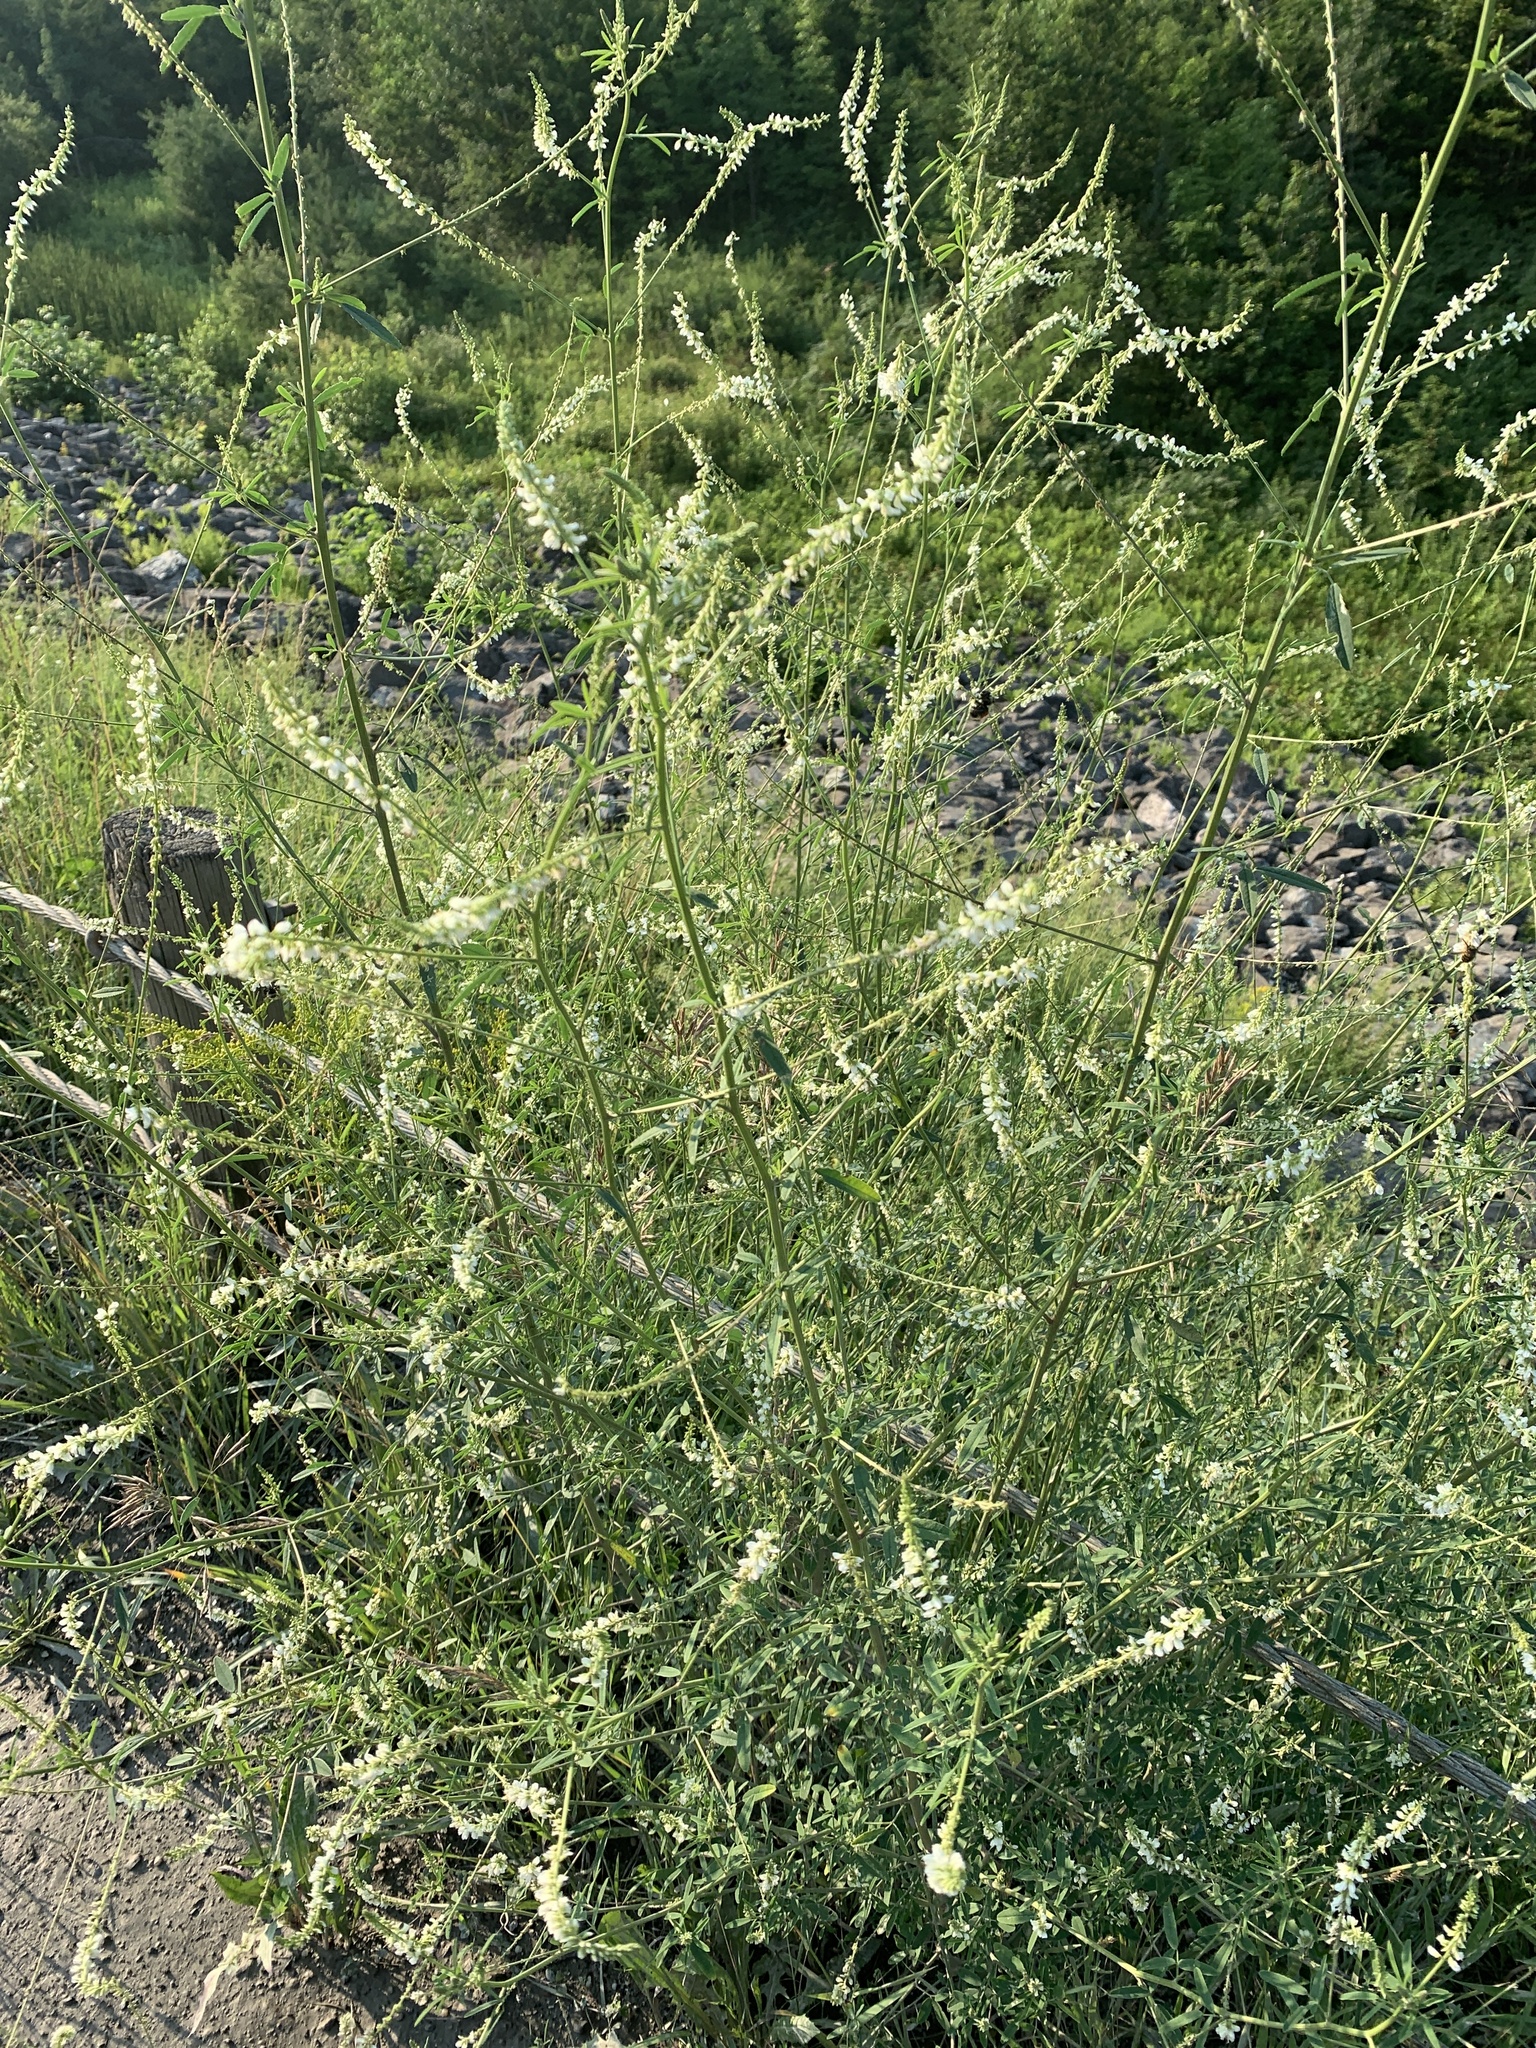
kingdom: Plantae
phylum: Tracheophyta
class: Magnoliopsida
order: Fabales
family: Fabaceae
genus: Melilotus
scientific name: Melilotus albus
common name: White melilot
